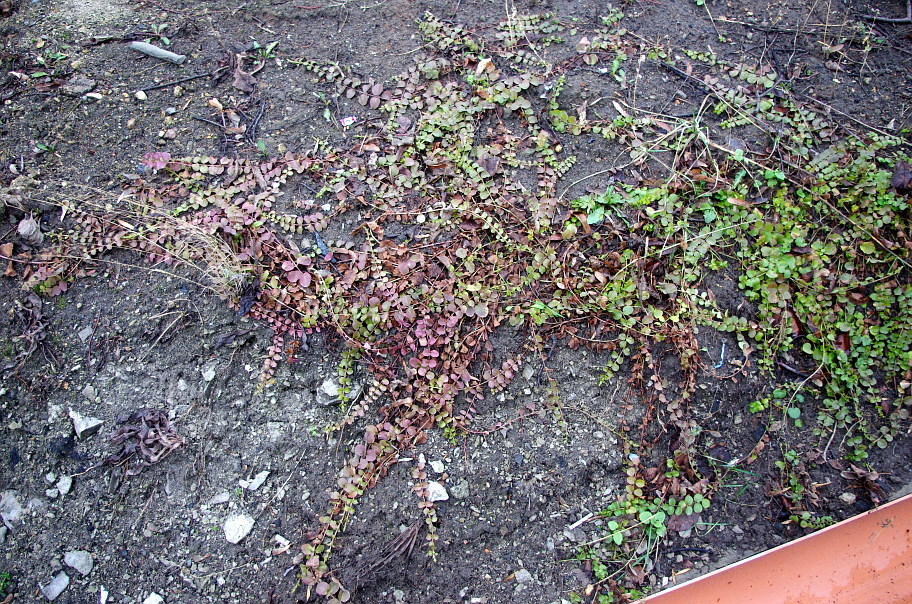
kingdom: Plantae
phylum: Tracheophyta
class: Magnoliopsida
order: Ericales
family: Primulaceae
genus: Lysimachia
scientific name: Lysimachia nummularia
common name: Moneywort
